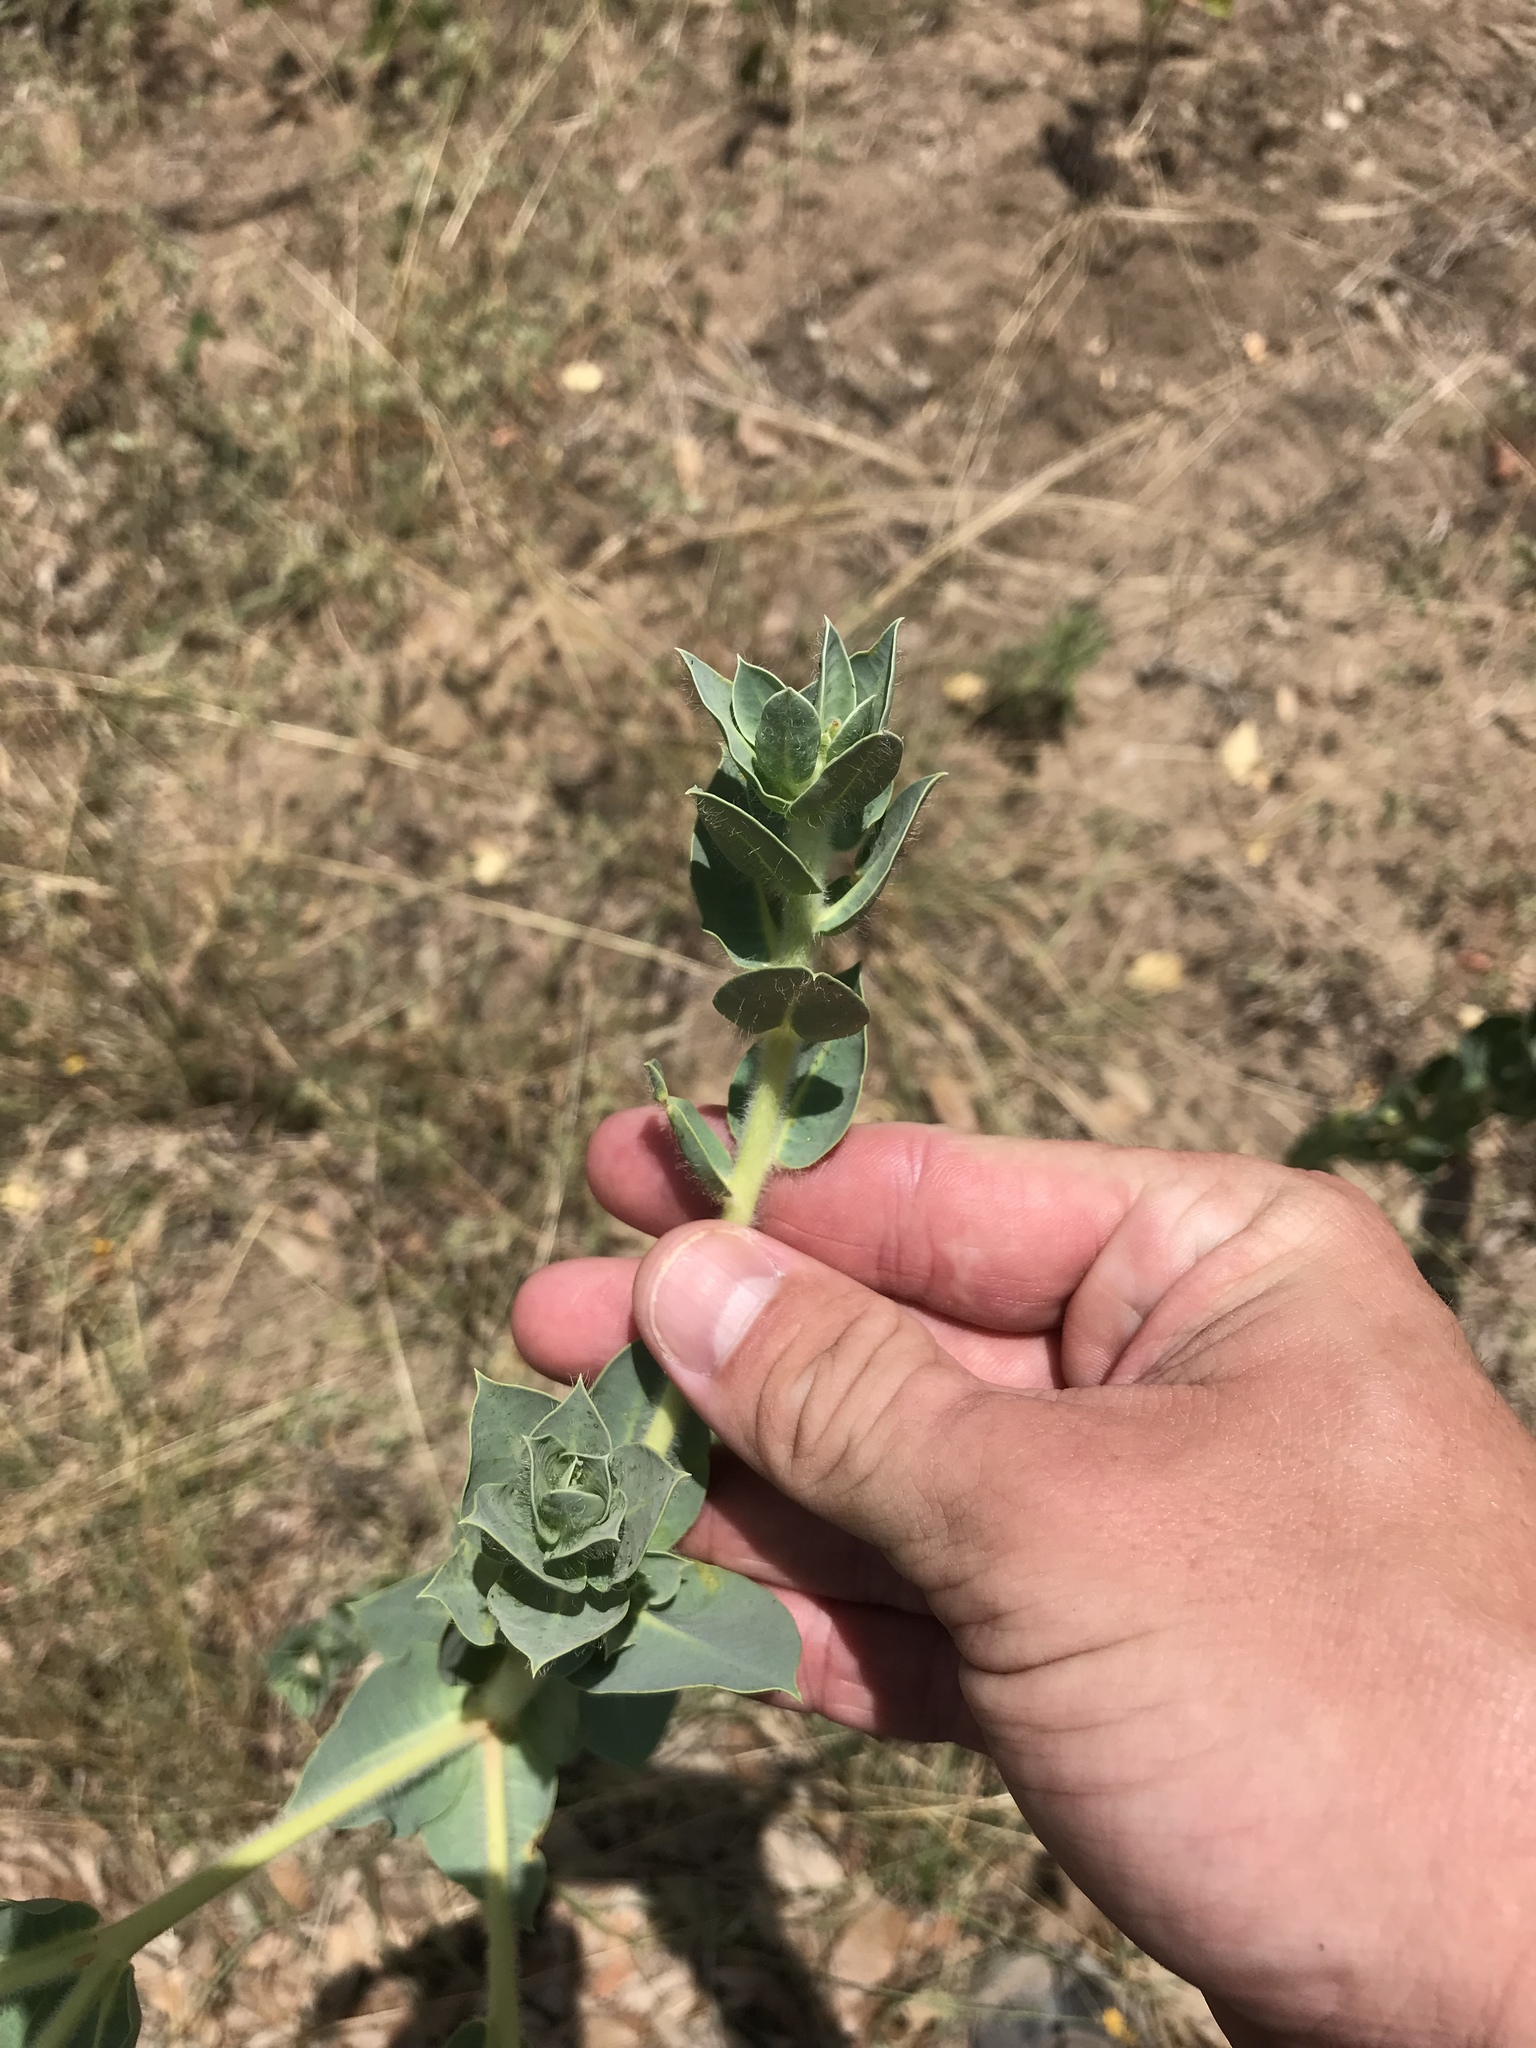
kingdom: Plantae
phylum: Tracheophyta
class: Magnoliopsida
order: Malpighiales
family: Euphorbiaceae
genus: Euphorbia
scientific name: Euphorbia marginata
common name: Ghostweed
